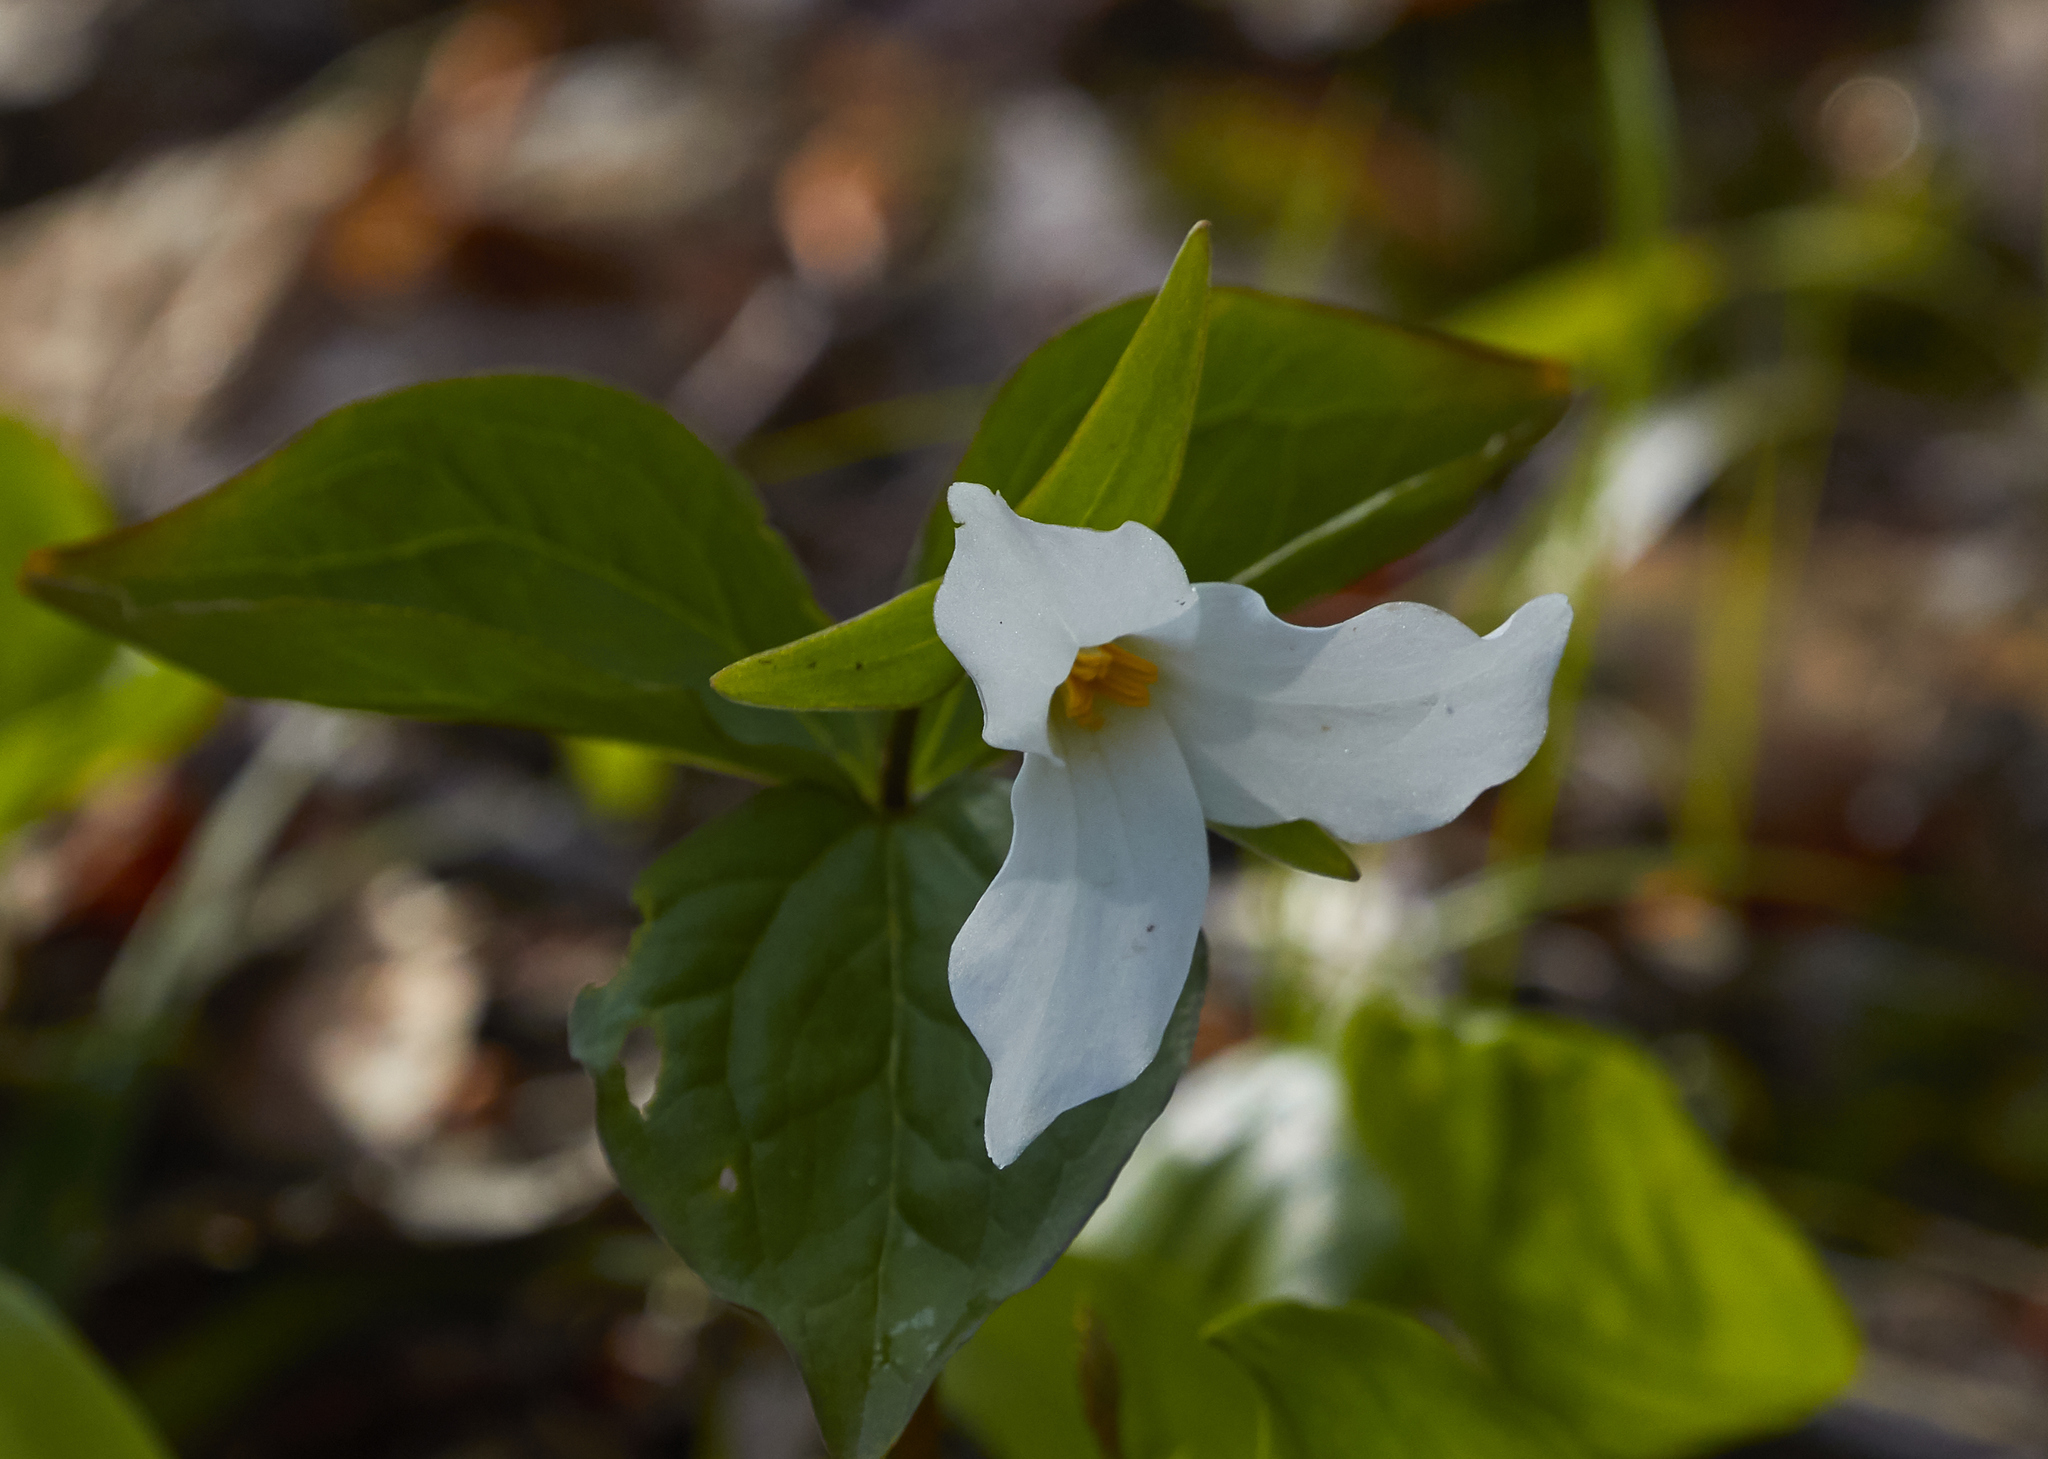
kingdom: Plantae
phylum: Tracheophyta
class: Liliopsida
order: Liliales
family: Melanthiaceae
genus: Trillium
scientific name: Trillium grandiflorum
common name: Great white trillium
